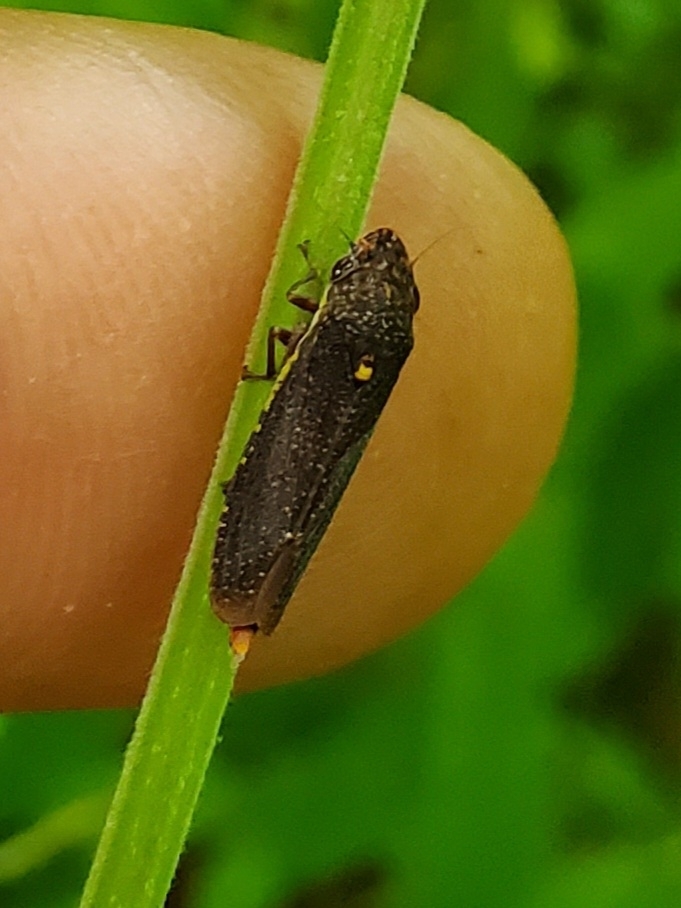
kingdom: Animalia
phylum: Arthropoda
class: Insecta
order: Hemiptera
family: Cicadellidae
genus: Paraulacizes
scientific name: Paraulacizes irrorata
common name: Speckled sharpshooter
